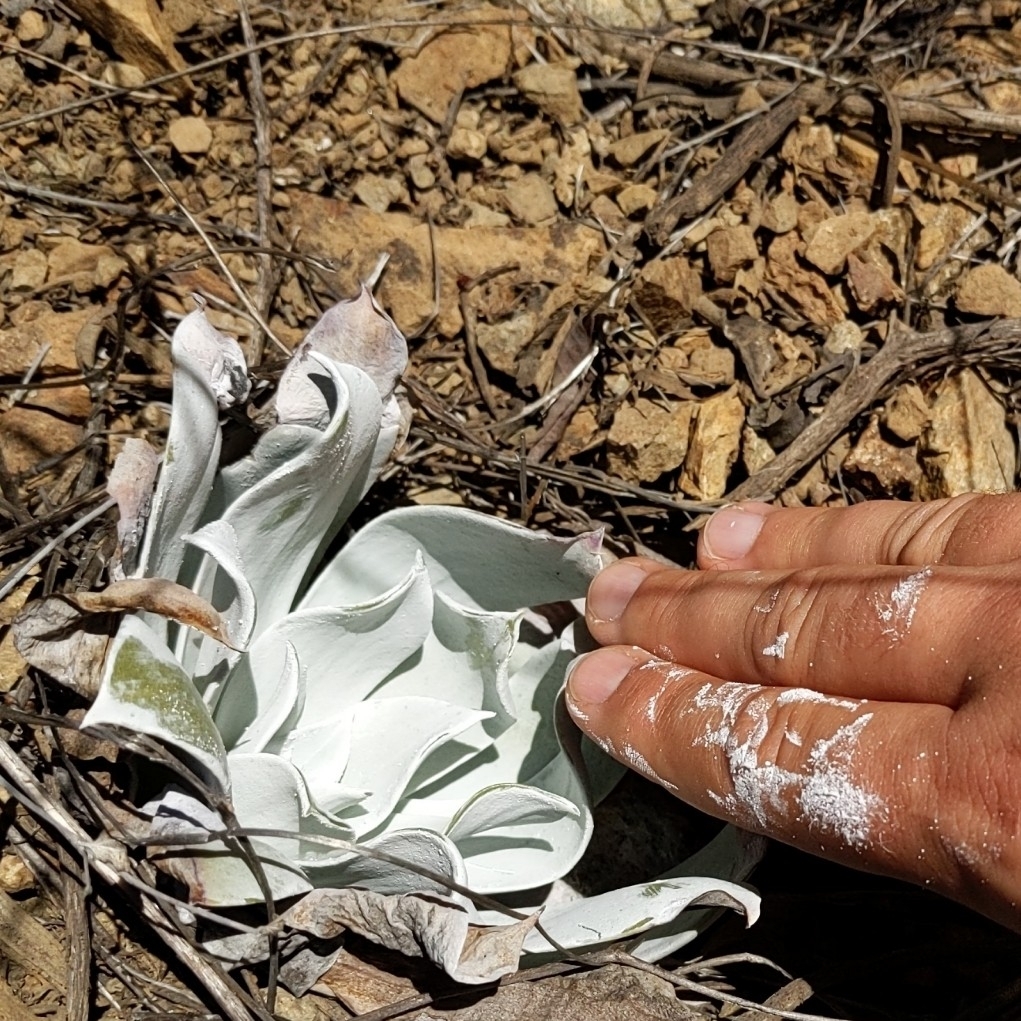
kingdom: Plantae
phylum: Tracheophyta
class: Magnoliopsida
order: Saxifragales
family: Crassulaceae
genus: Dudleya
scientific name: Dudleya pulverulenta
